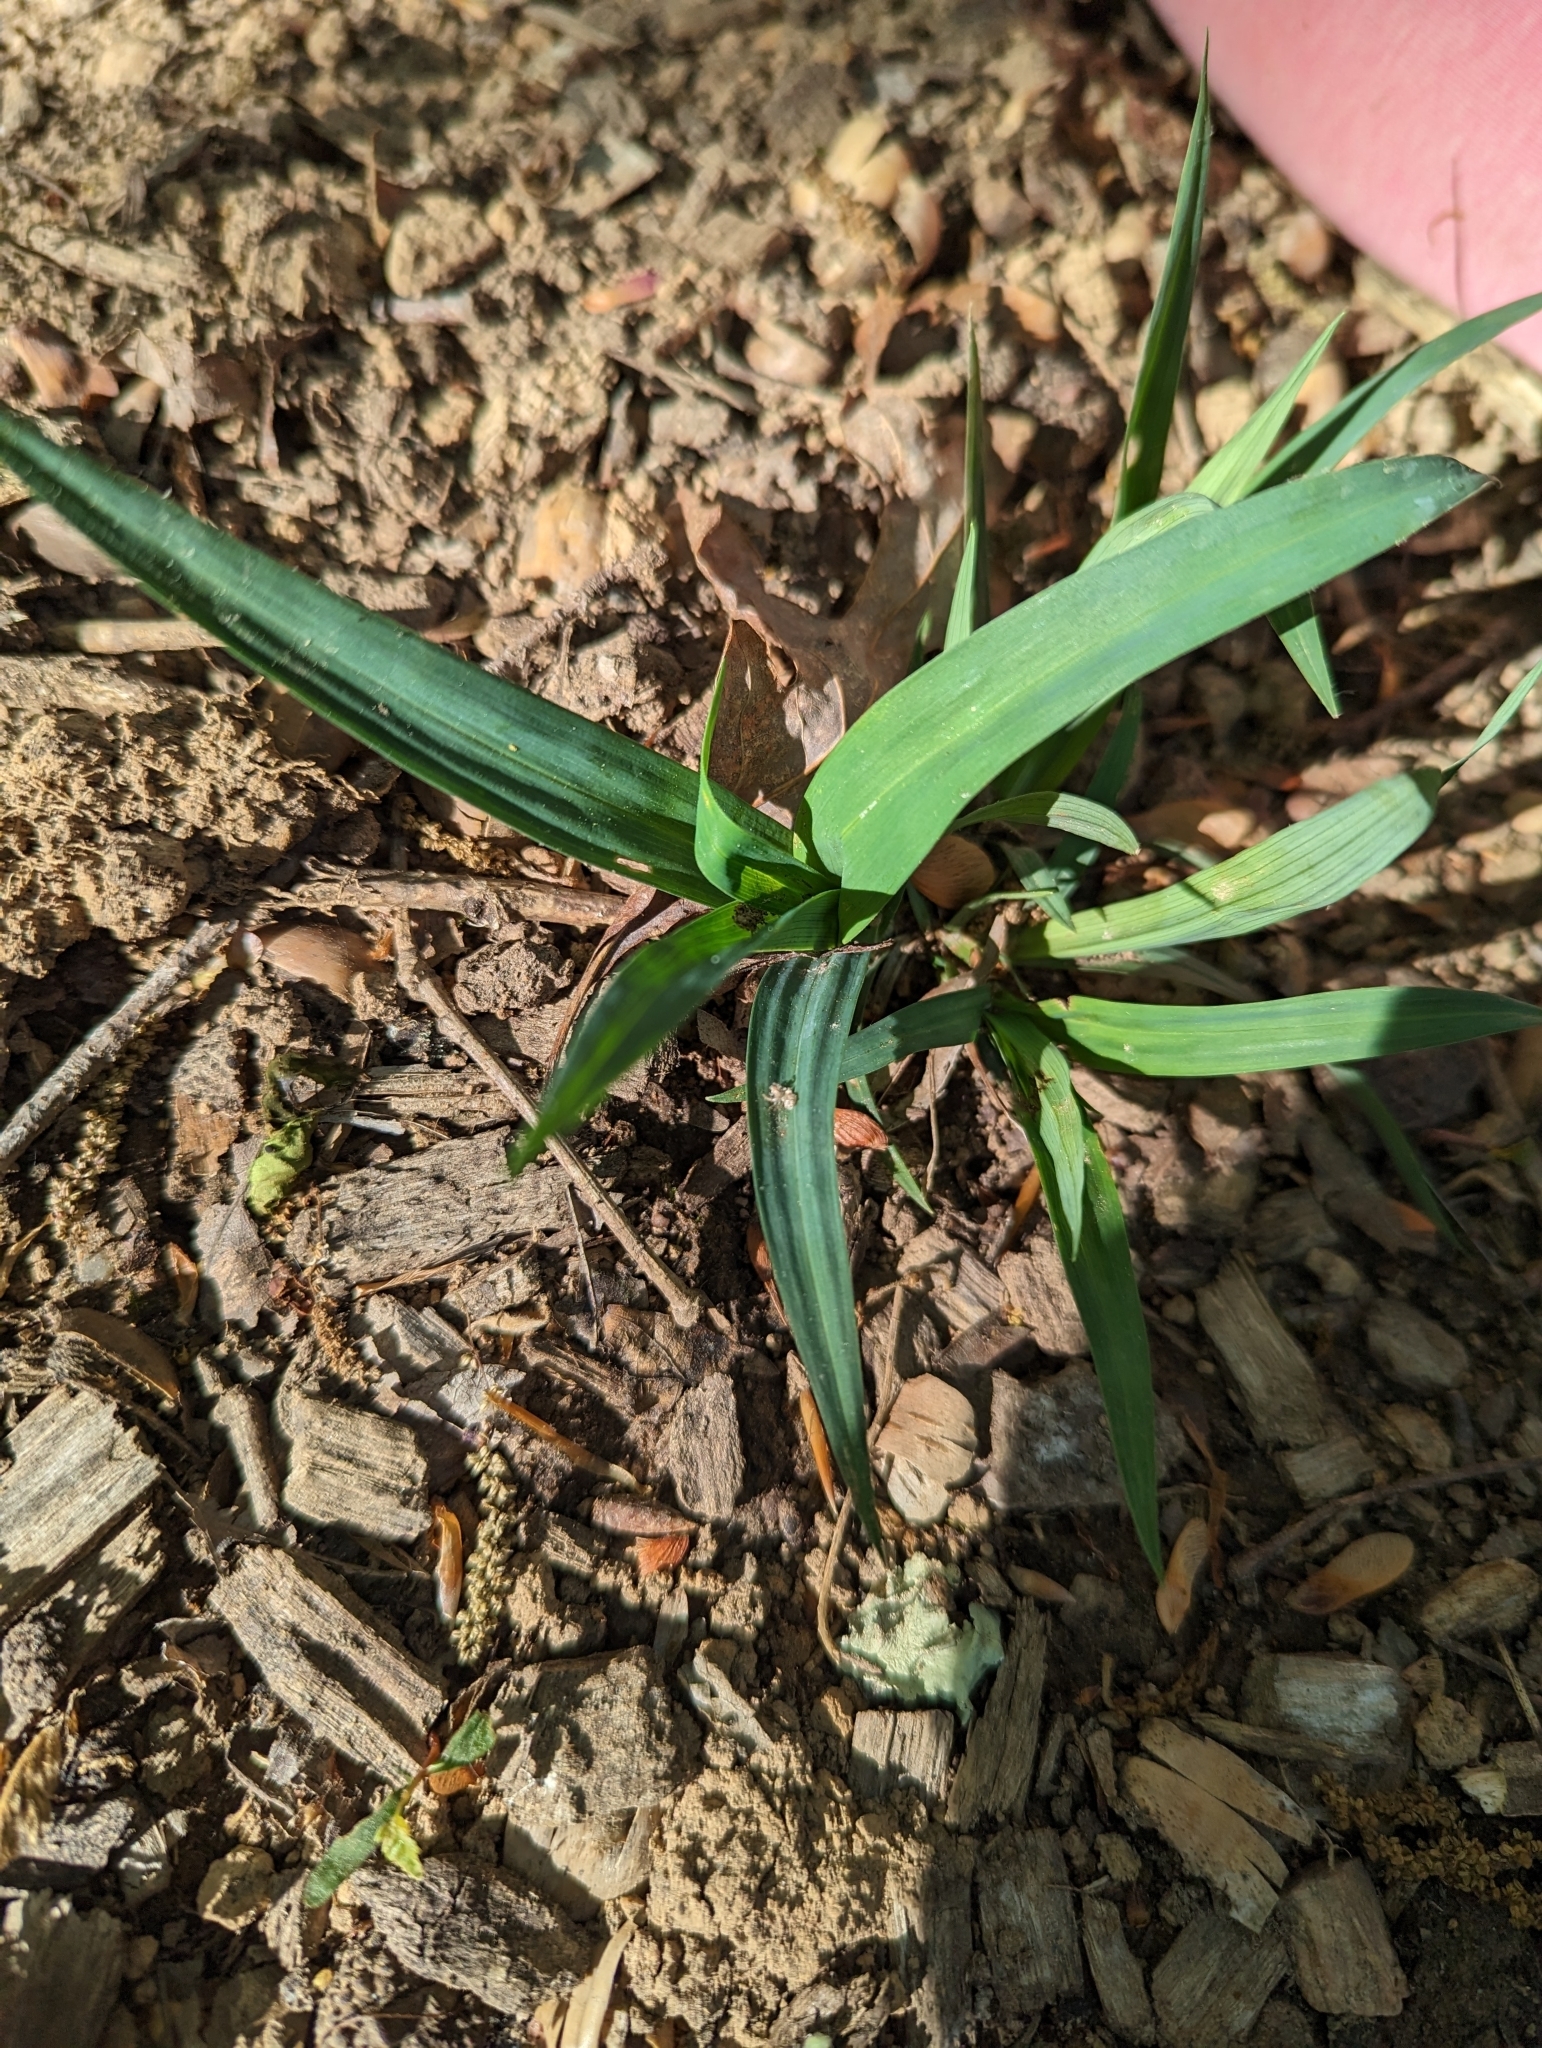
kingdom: Plantae
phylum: Tracheophyta
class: Liliopsida
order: Poales
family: Cyperaceae
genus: Carex
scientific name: Carex glaucodea
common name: Blue sedge
